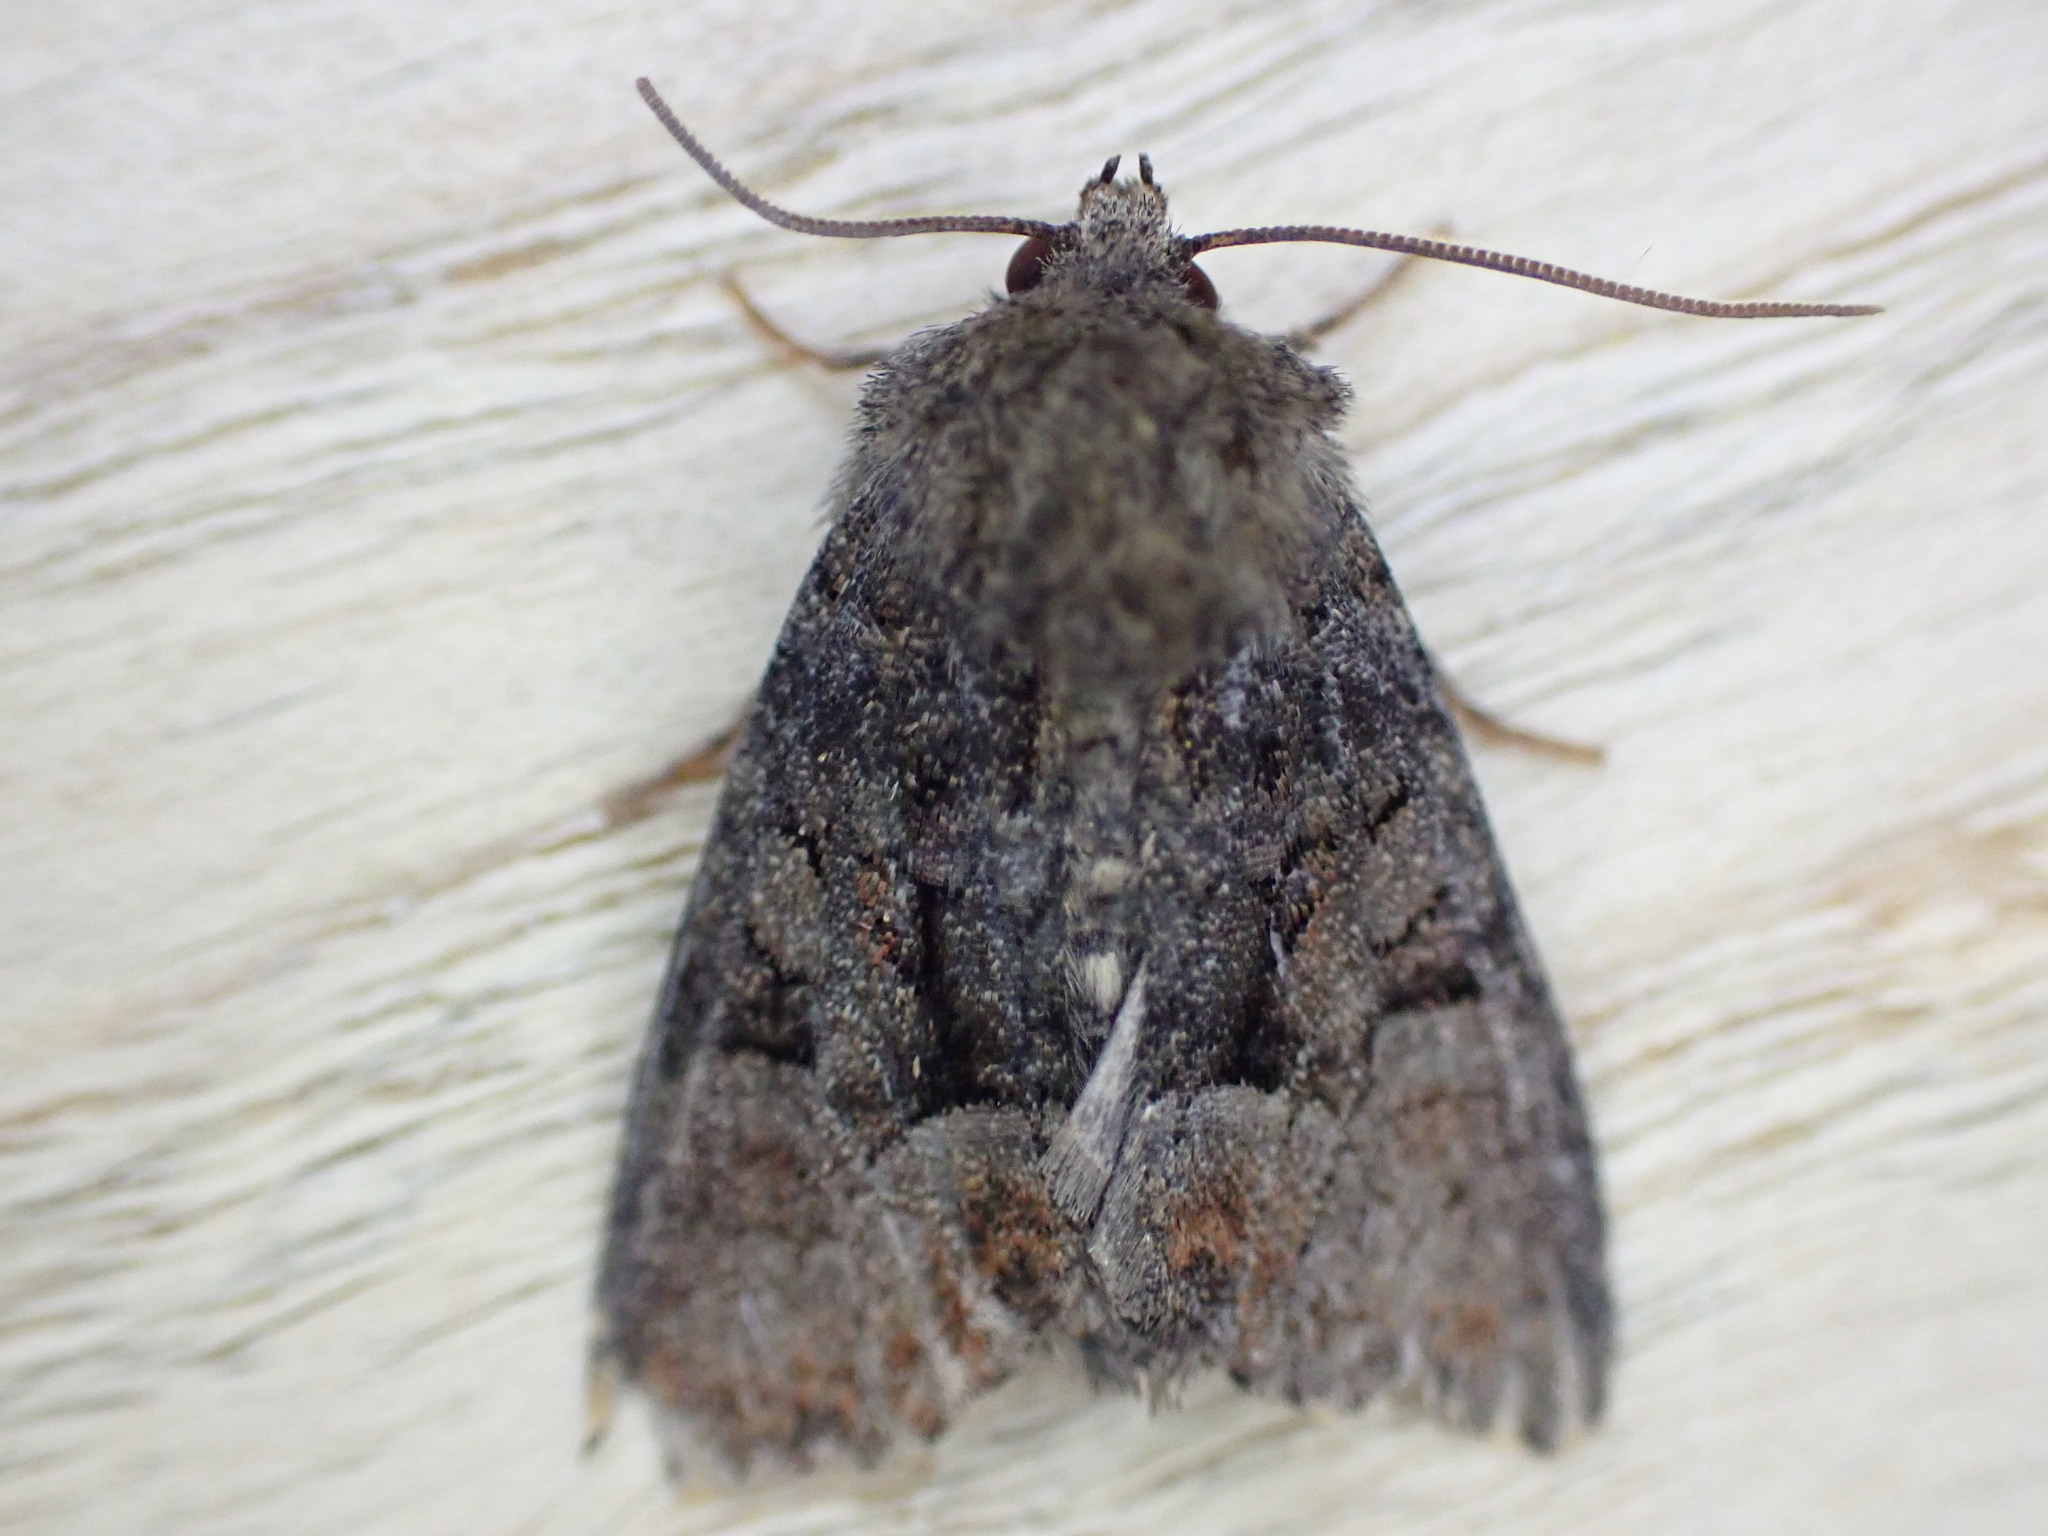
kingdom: Animalia
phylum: Arthropoda
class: Insecta
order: Lepidoptera
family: Noctuidae
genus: Oligia
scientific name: Oligia latruncula
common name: Tawny marbled minor
